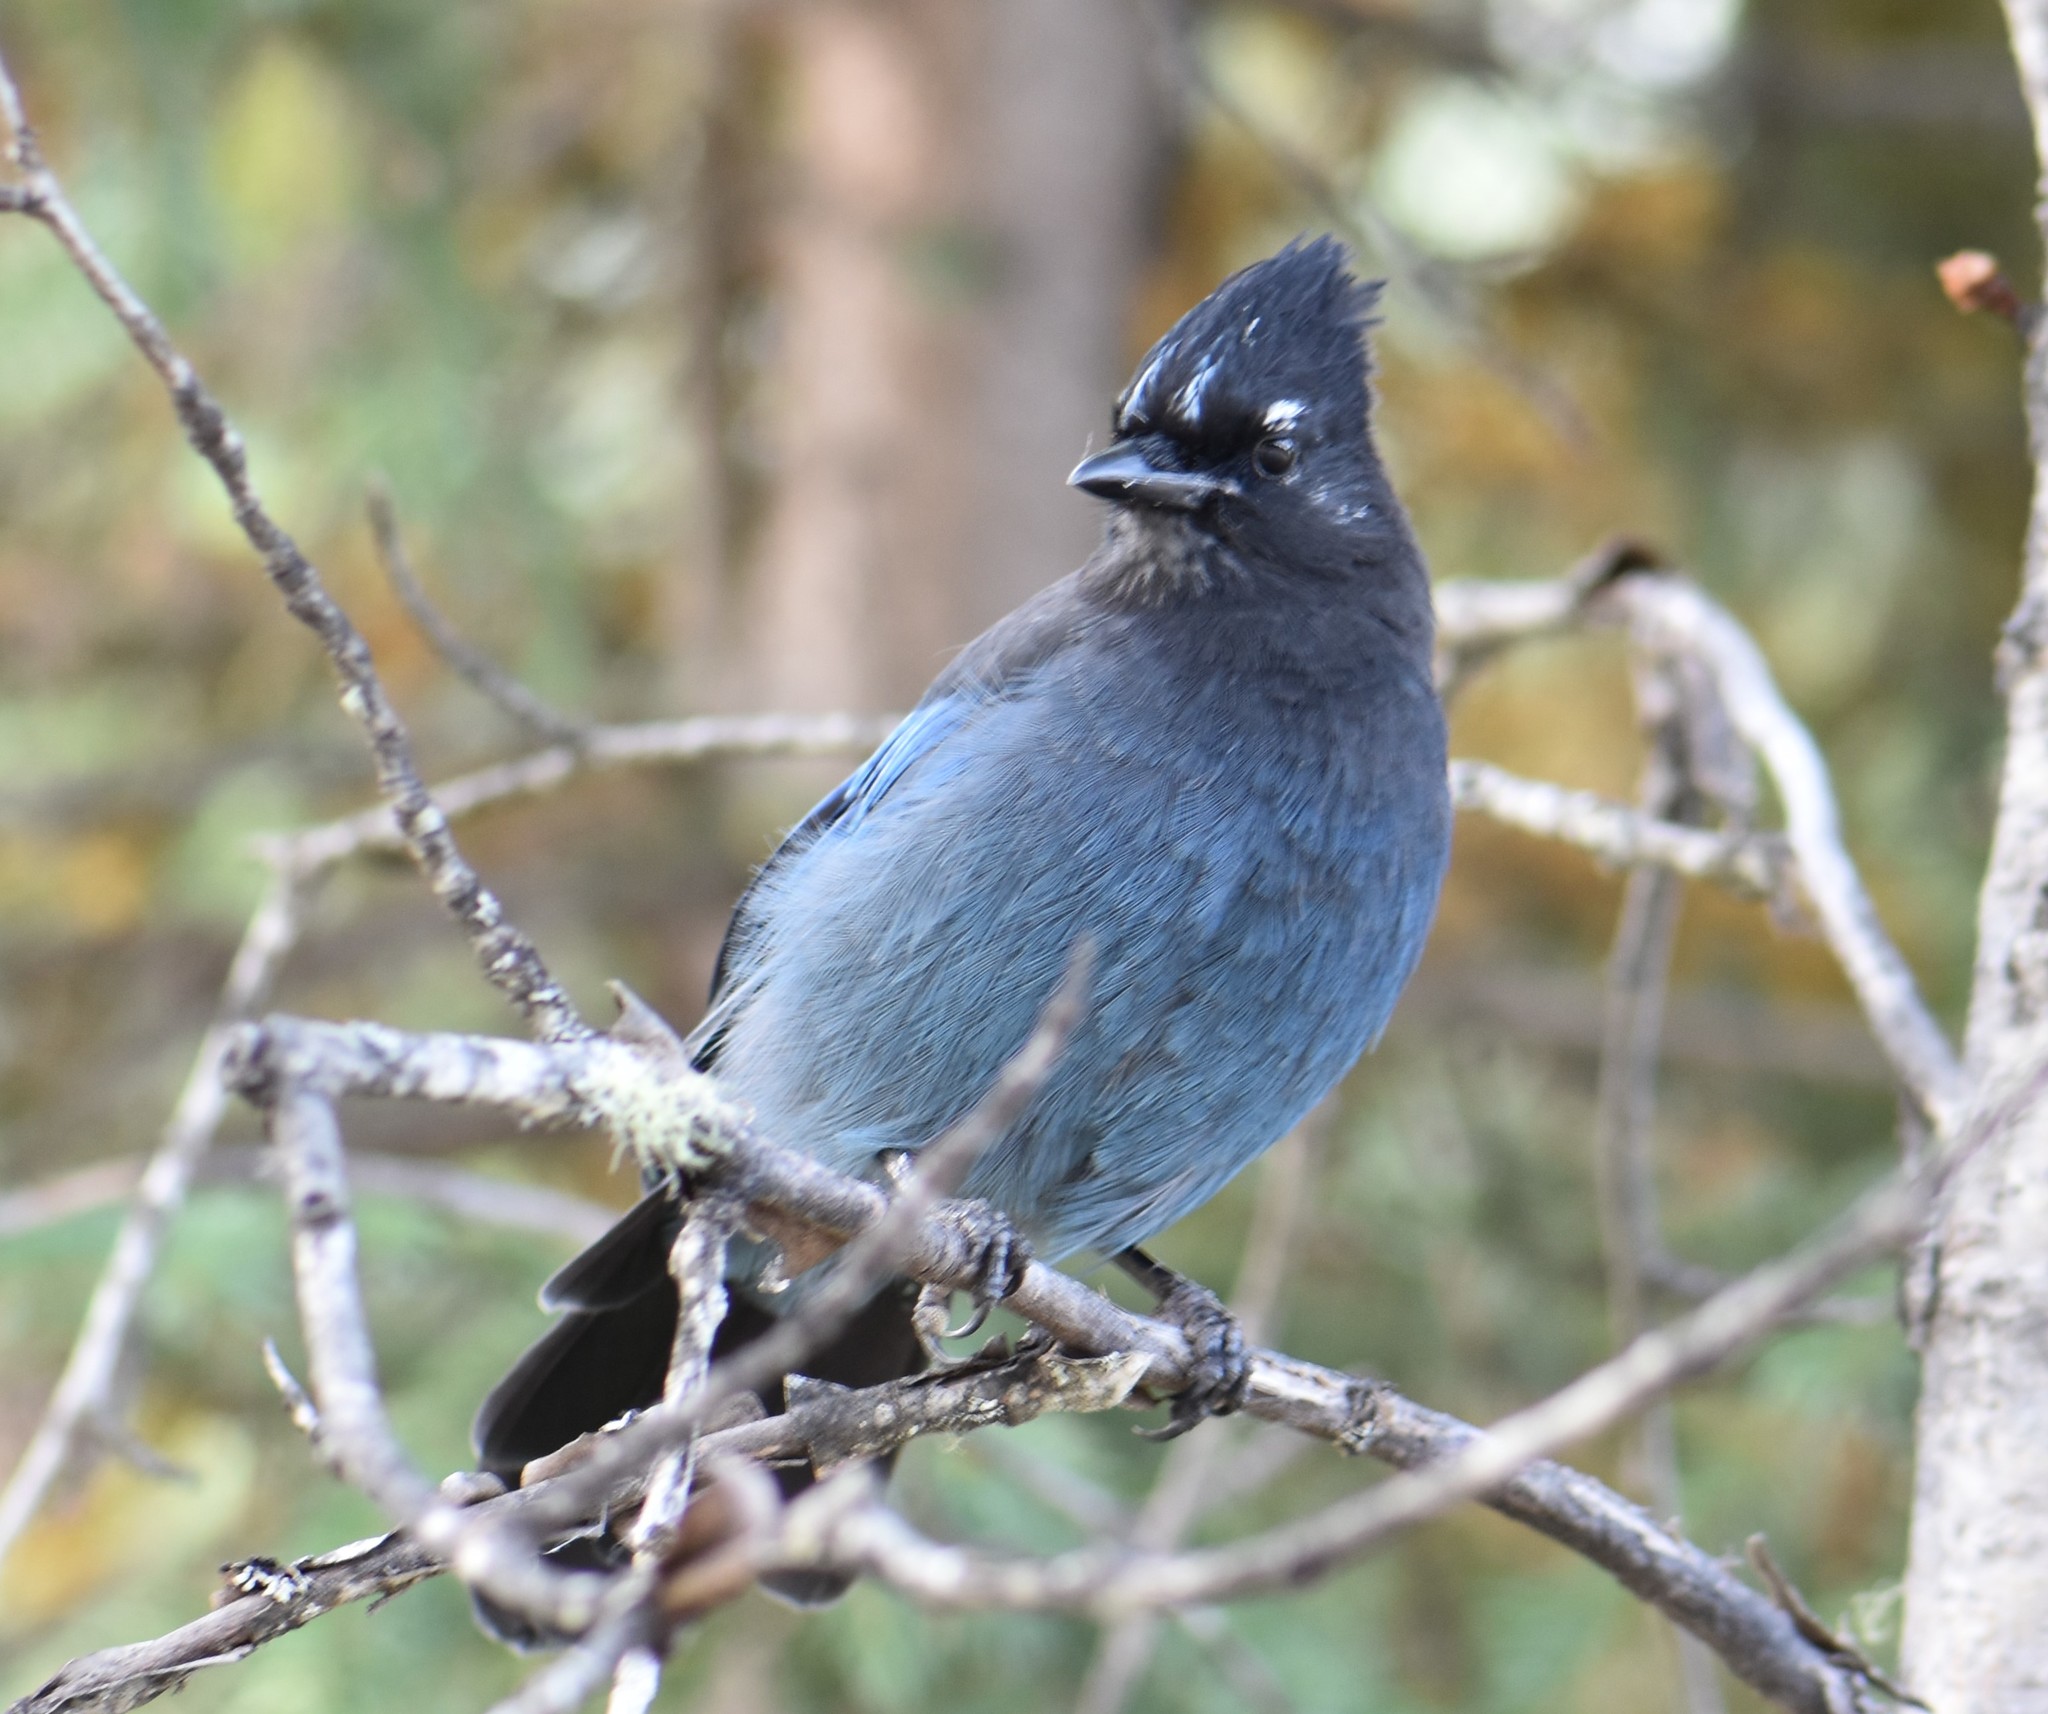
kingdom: Animalia
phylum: Chordata
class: Aves
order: Passeriformes
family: Corvidae
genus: Cyanocitta
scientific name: Cyanocitta stelleri
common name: Steller's jay
